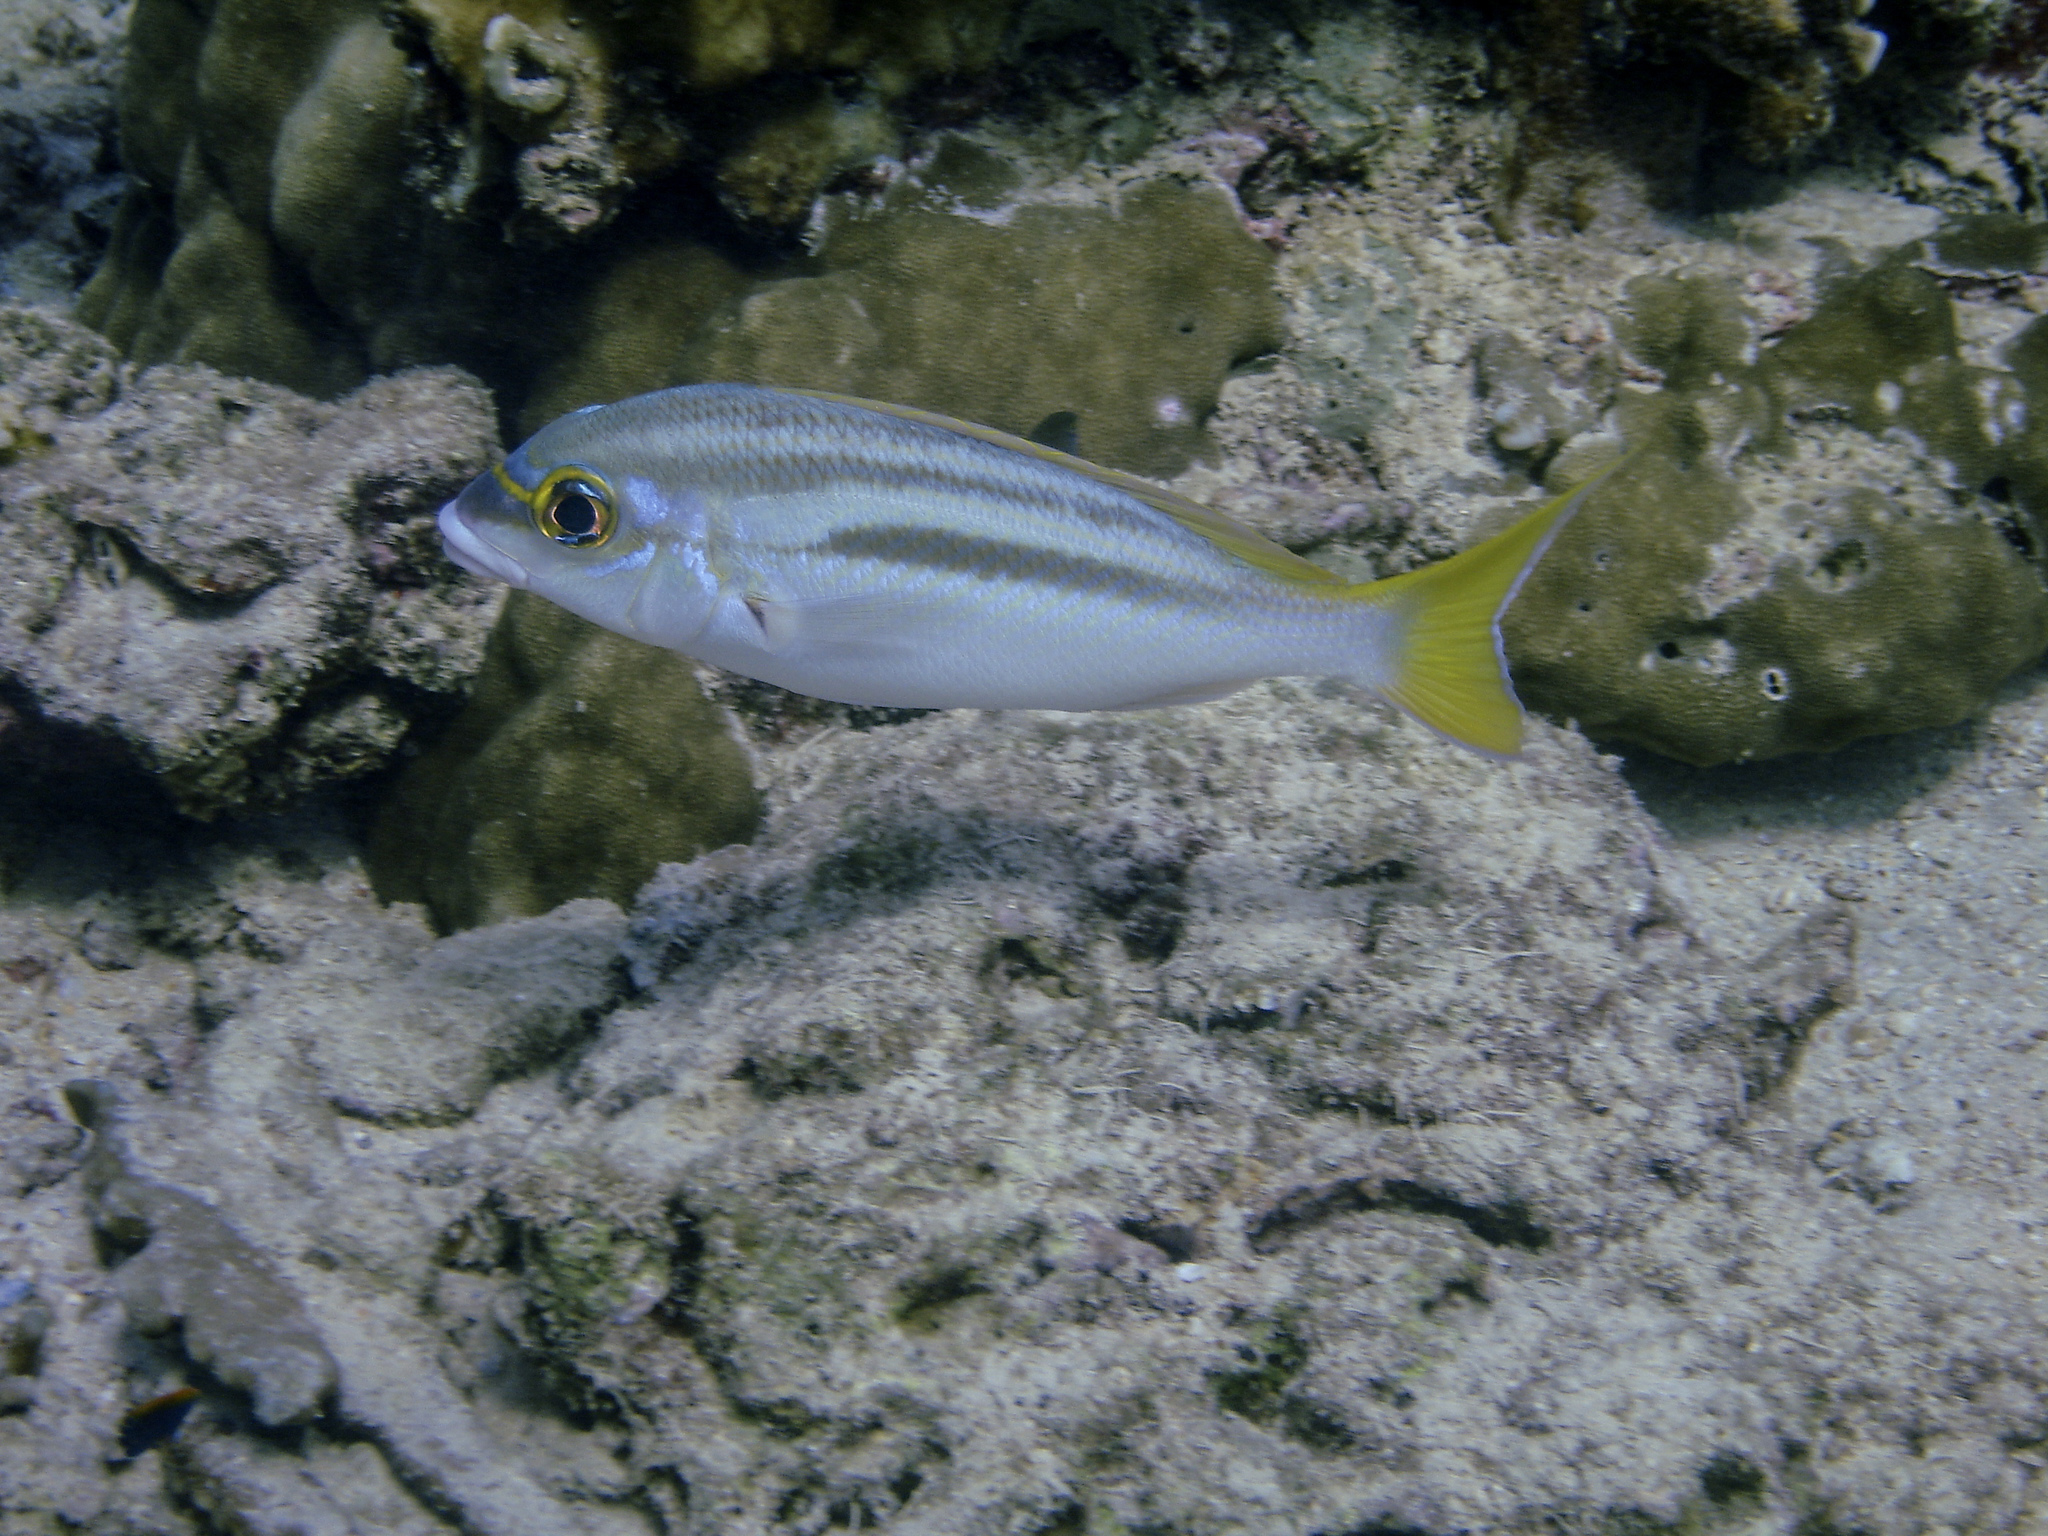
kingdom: Animalia
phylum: Chordata
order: Perciformes
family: Nemipteridae
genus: Scolopsis
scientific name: Scolopsis temporalis
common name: Bald-spot monocle bream
